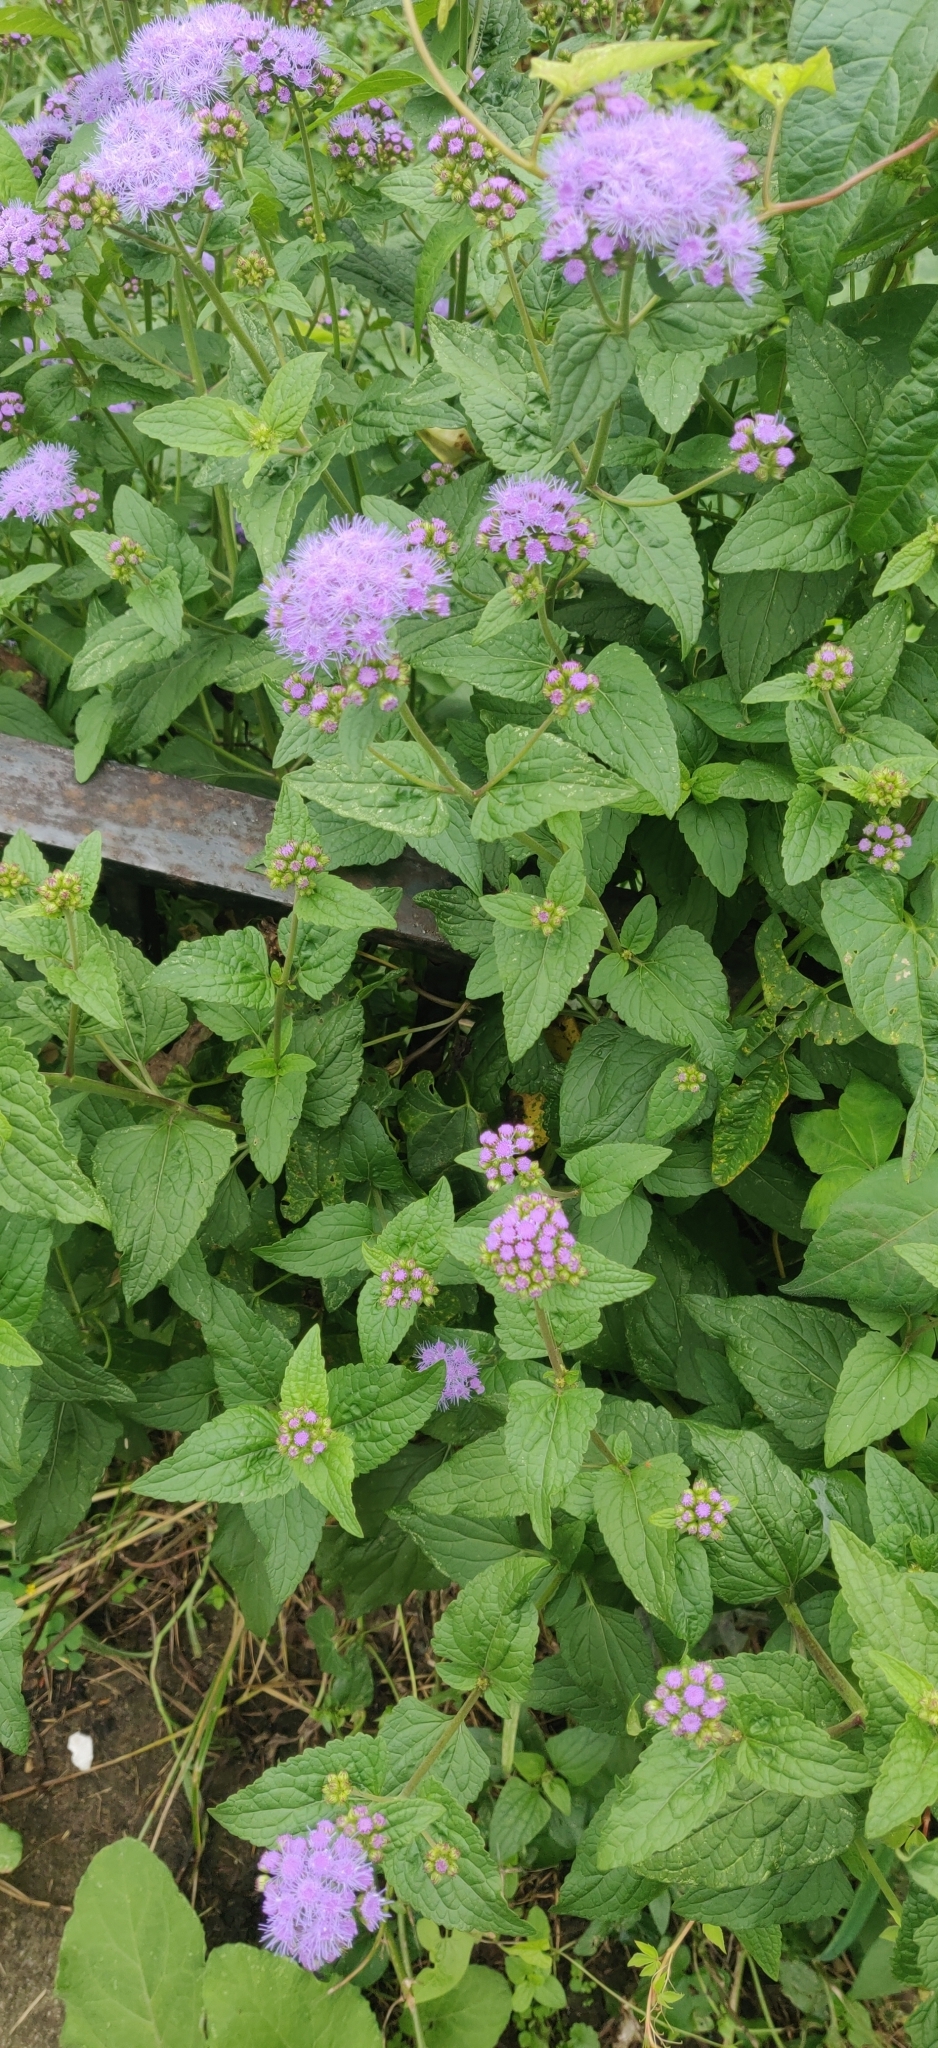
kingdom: Plantae
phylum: Tracheophyta
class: Magnoliopsida
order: Asterales
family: Asteraceae
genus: Conoclinium
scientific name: Conoclinium coelestinum
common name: Blue mistflower
